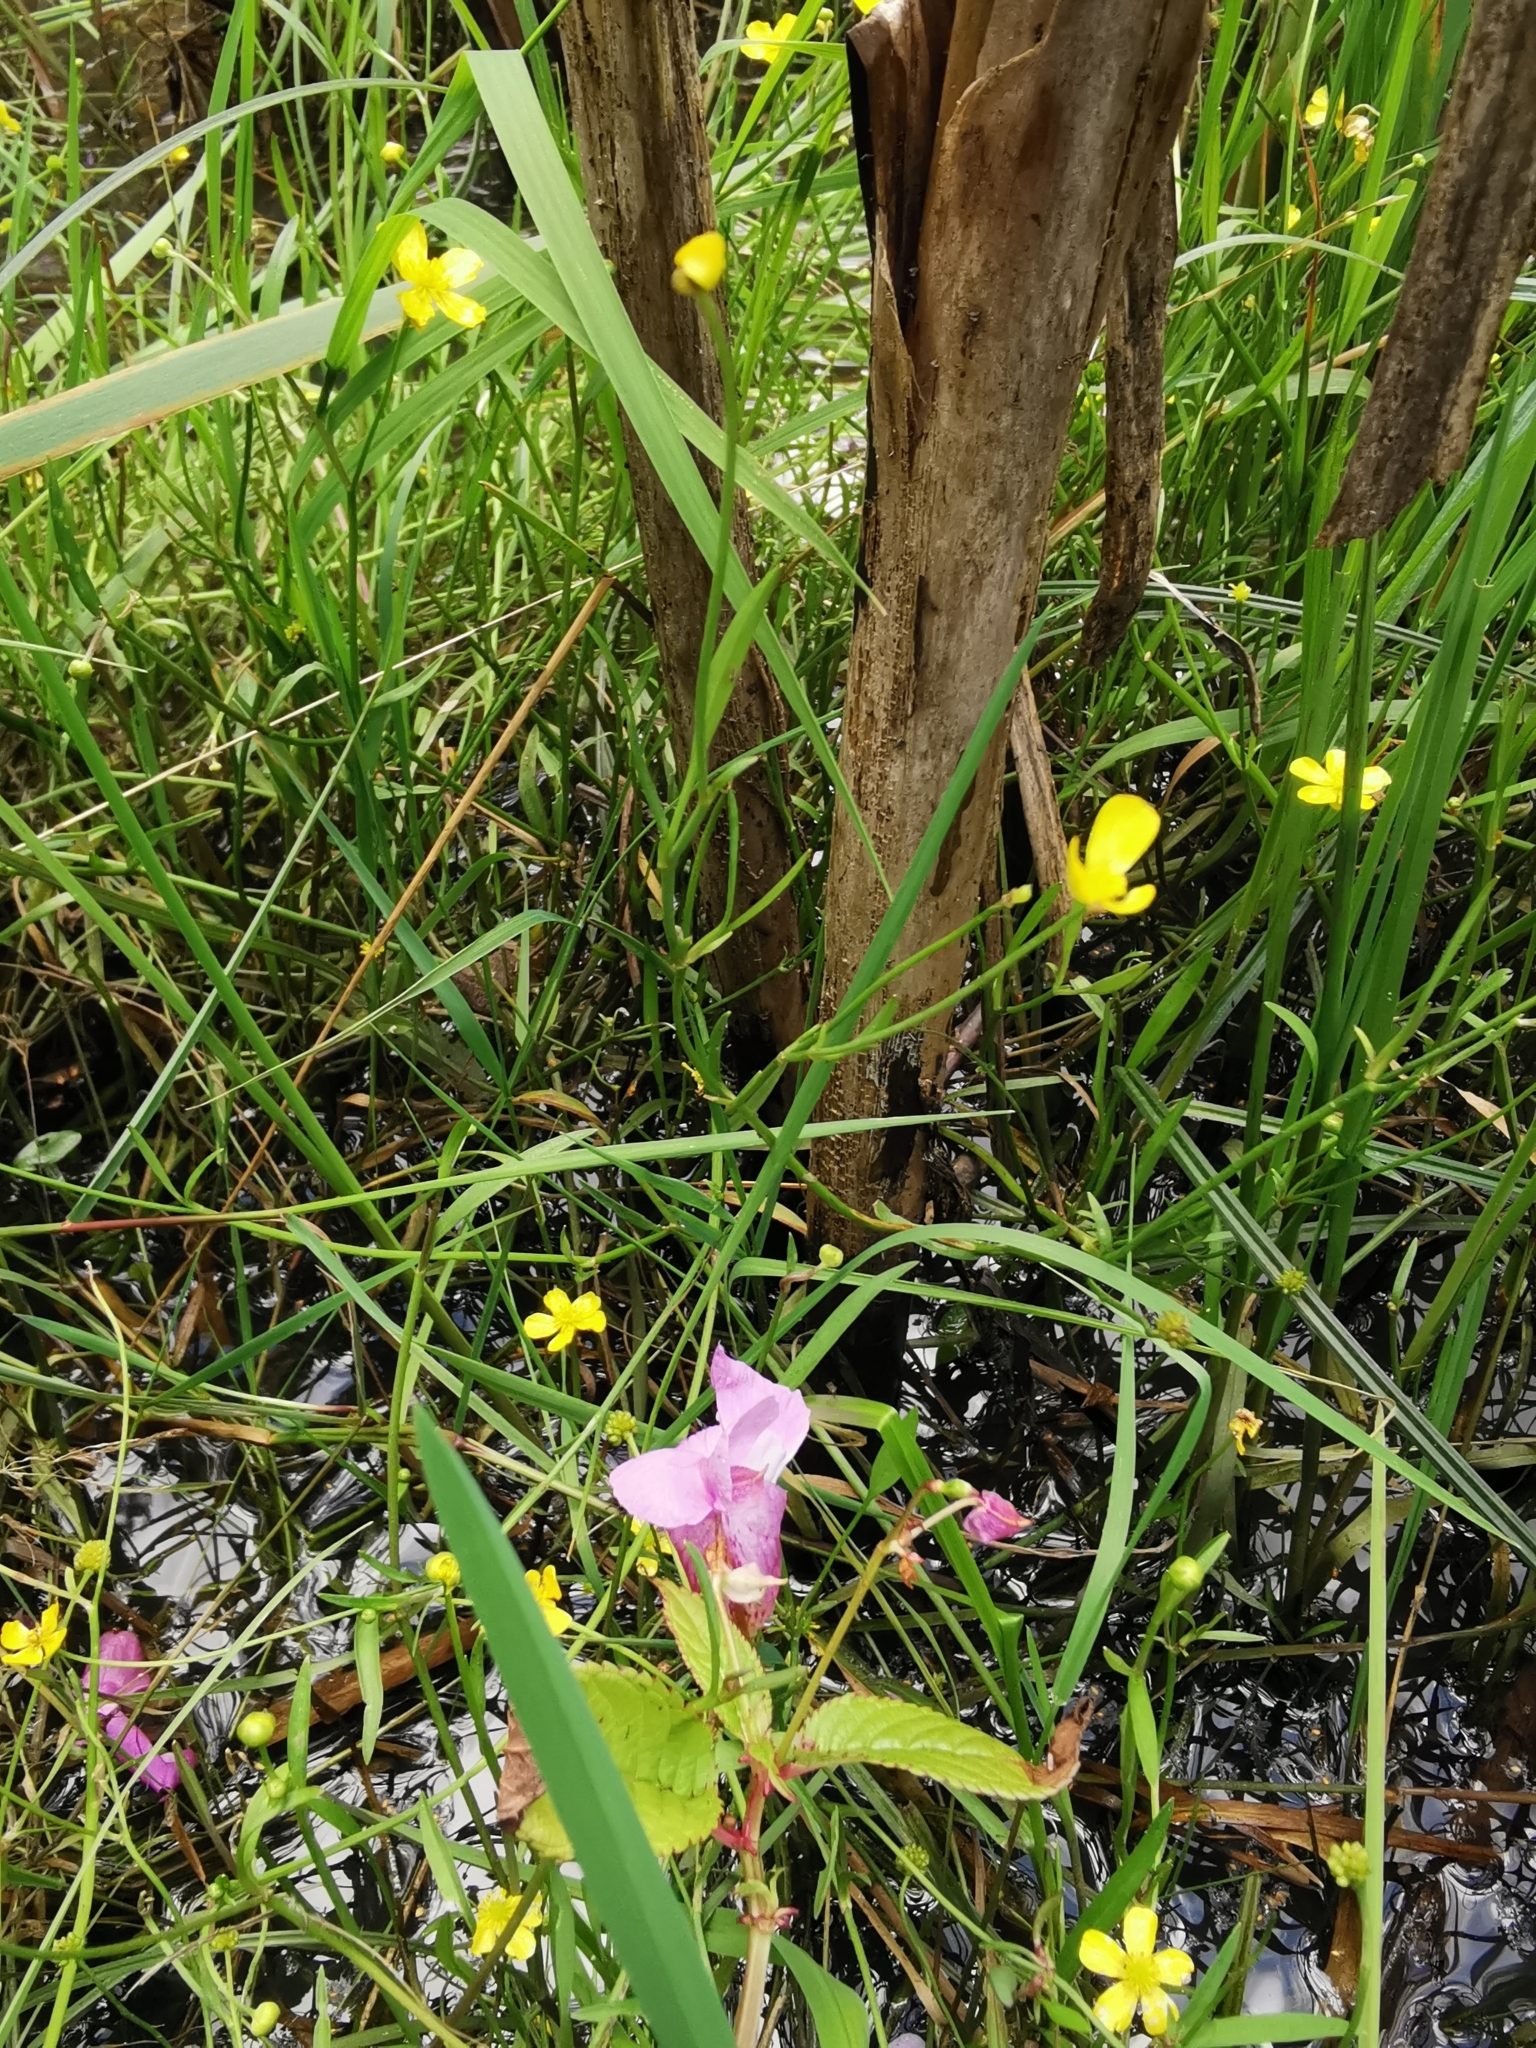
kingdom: Plantae
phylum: Tracheophyta
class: Magnoliopsida
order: Ranunculales
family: Ranunculaceae
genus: Ranunculus
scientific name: Ranunculus flammula
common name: Lesser spearwort
